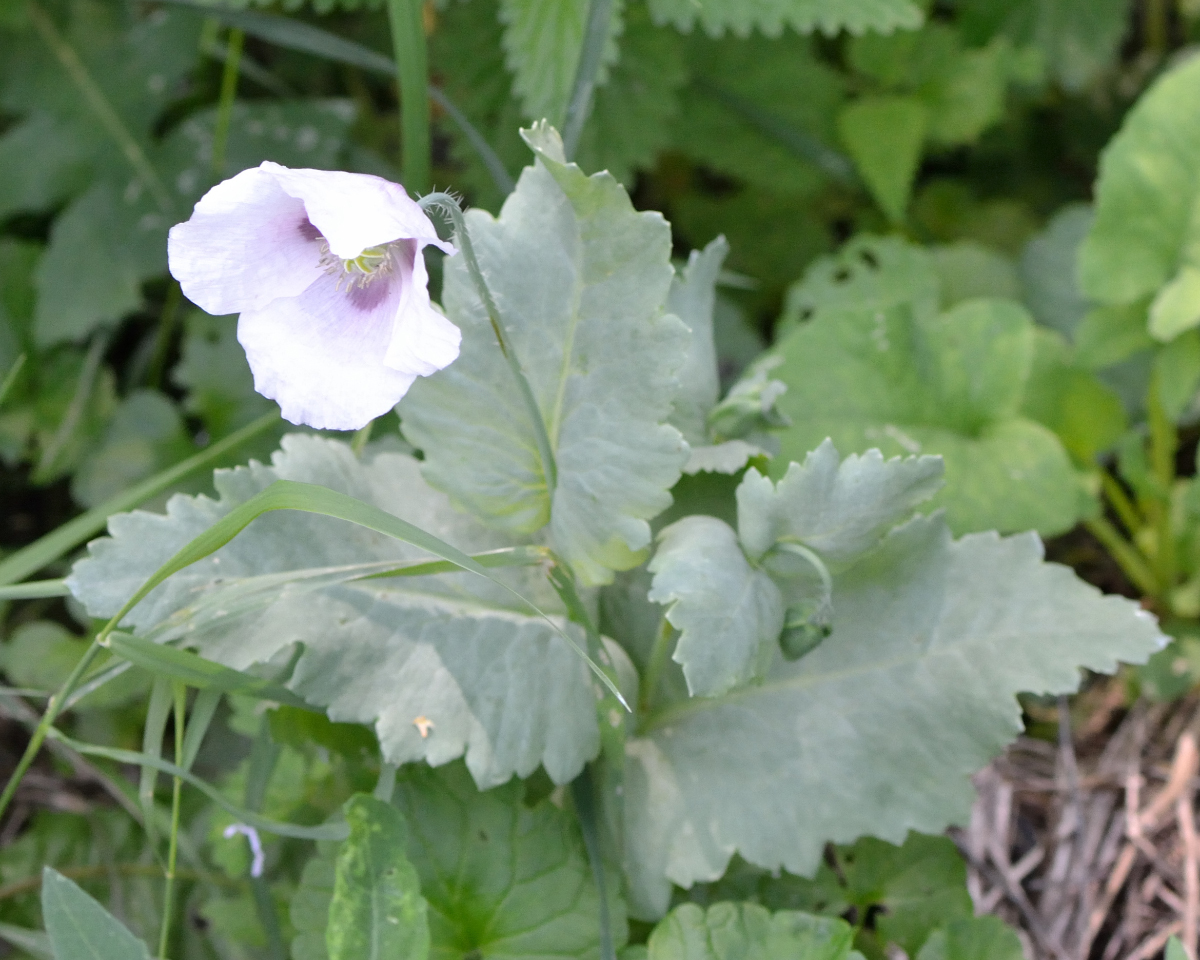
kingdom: Plantae
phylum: Tracheophyta
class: Magnoliopsida
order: Ranunculales
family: Papaveraceae
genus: Papaver
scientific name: Papaver somniferum
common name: Opium poppy
